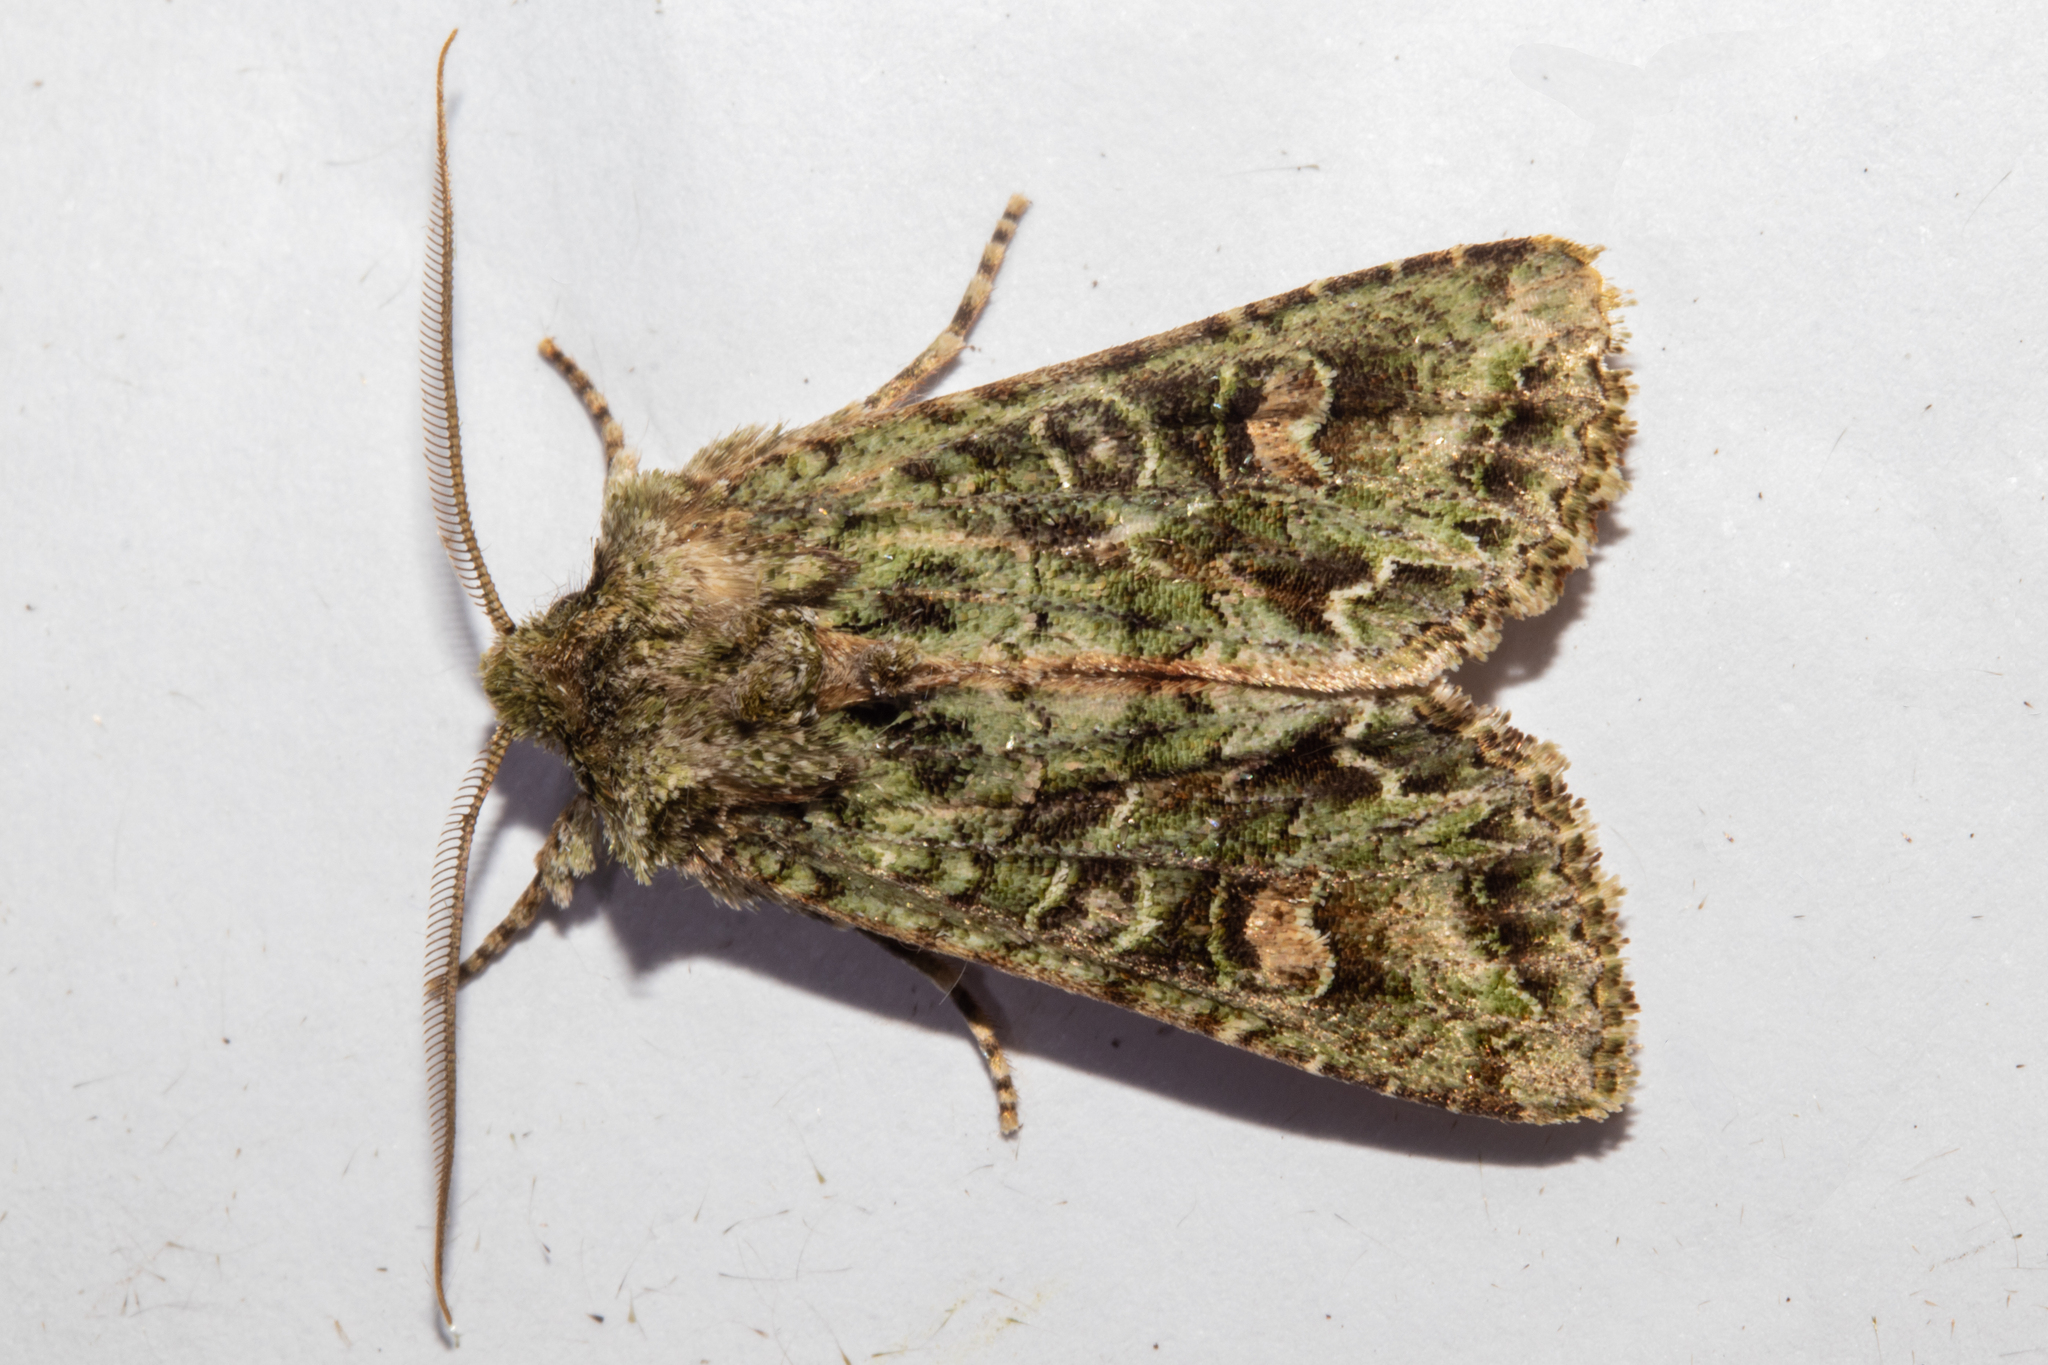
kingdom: Animalia
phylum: Arthropoda
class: Insecta
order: Lepidoptera
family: Noctuidae
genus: Ichneutica
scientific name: Ichneutica
